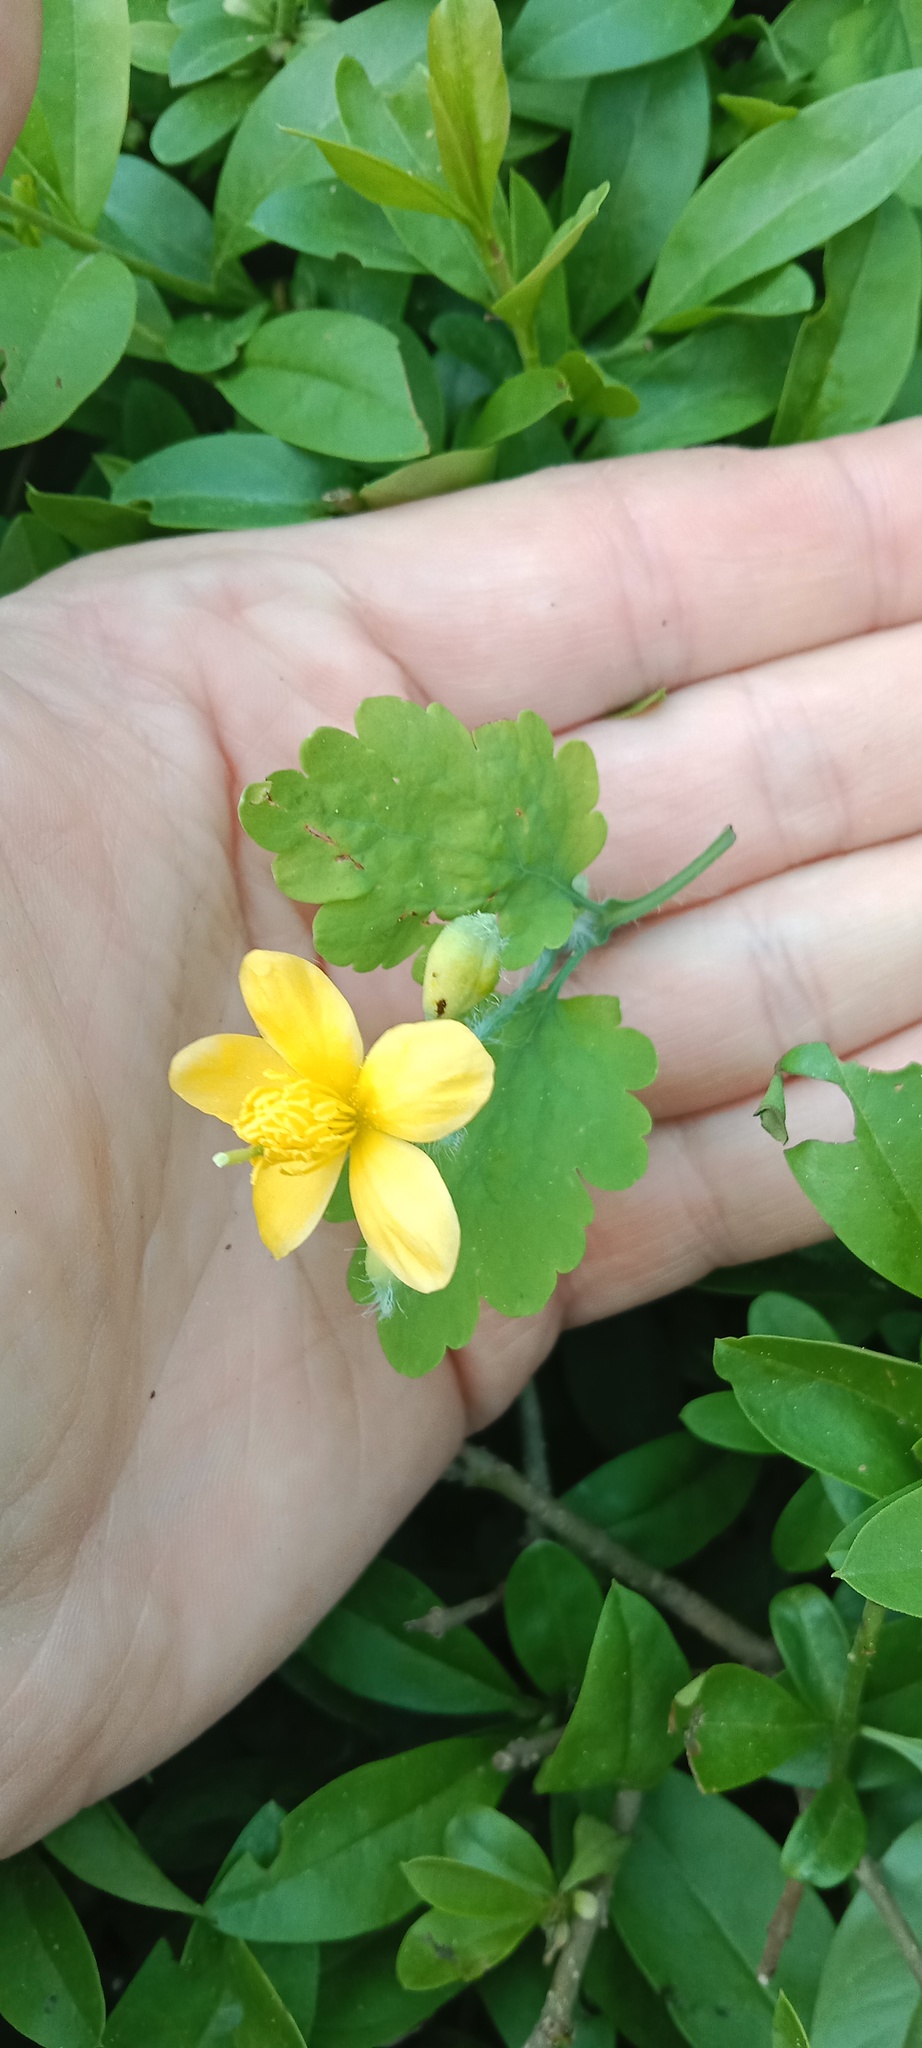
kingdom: Plantae
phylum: Tracheophyta
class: Magnoliopsida
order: Ranunculales
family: Papaveraceae
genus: Chelidonium
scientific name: Chelidonium majus
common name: Greater celandine
